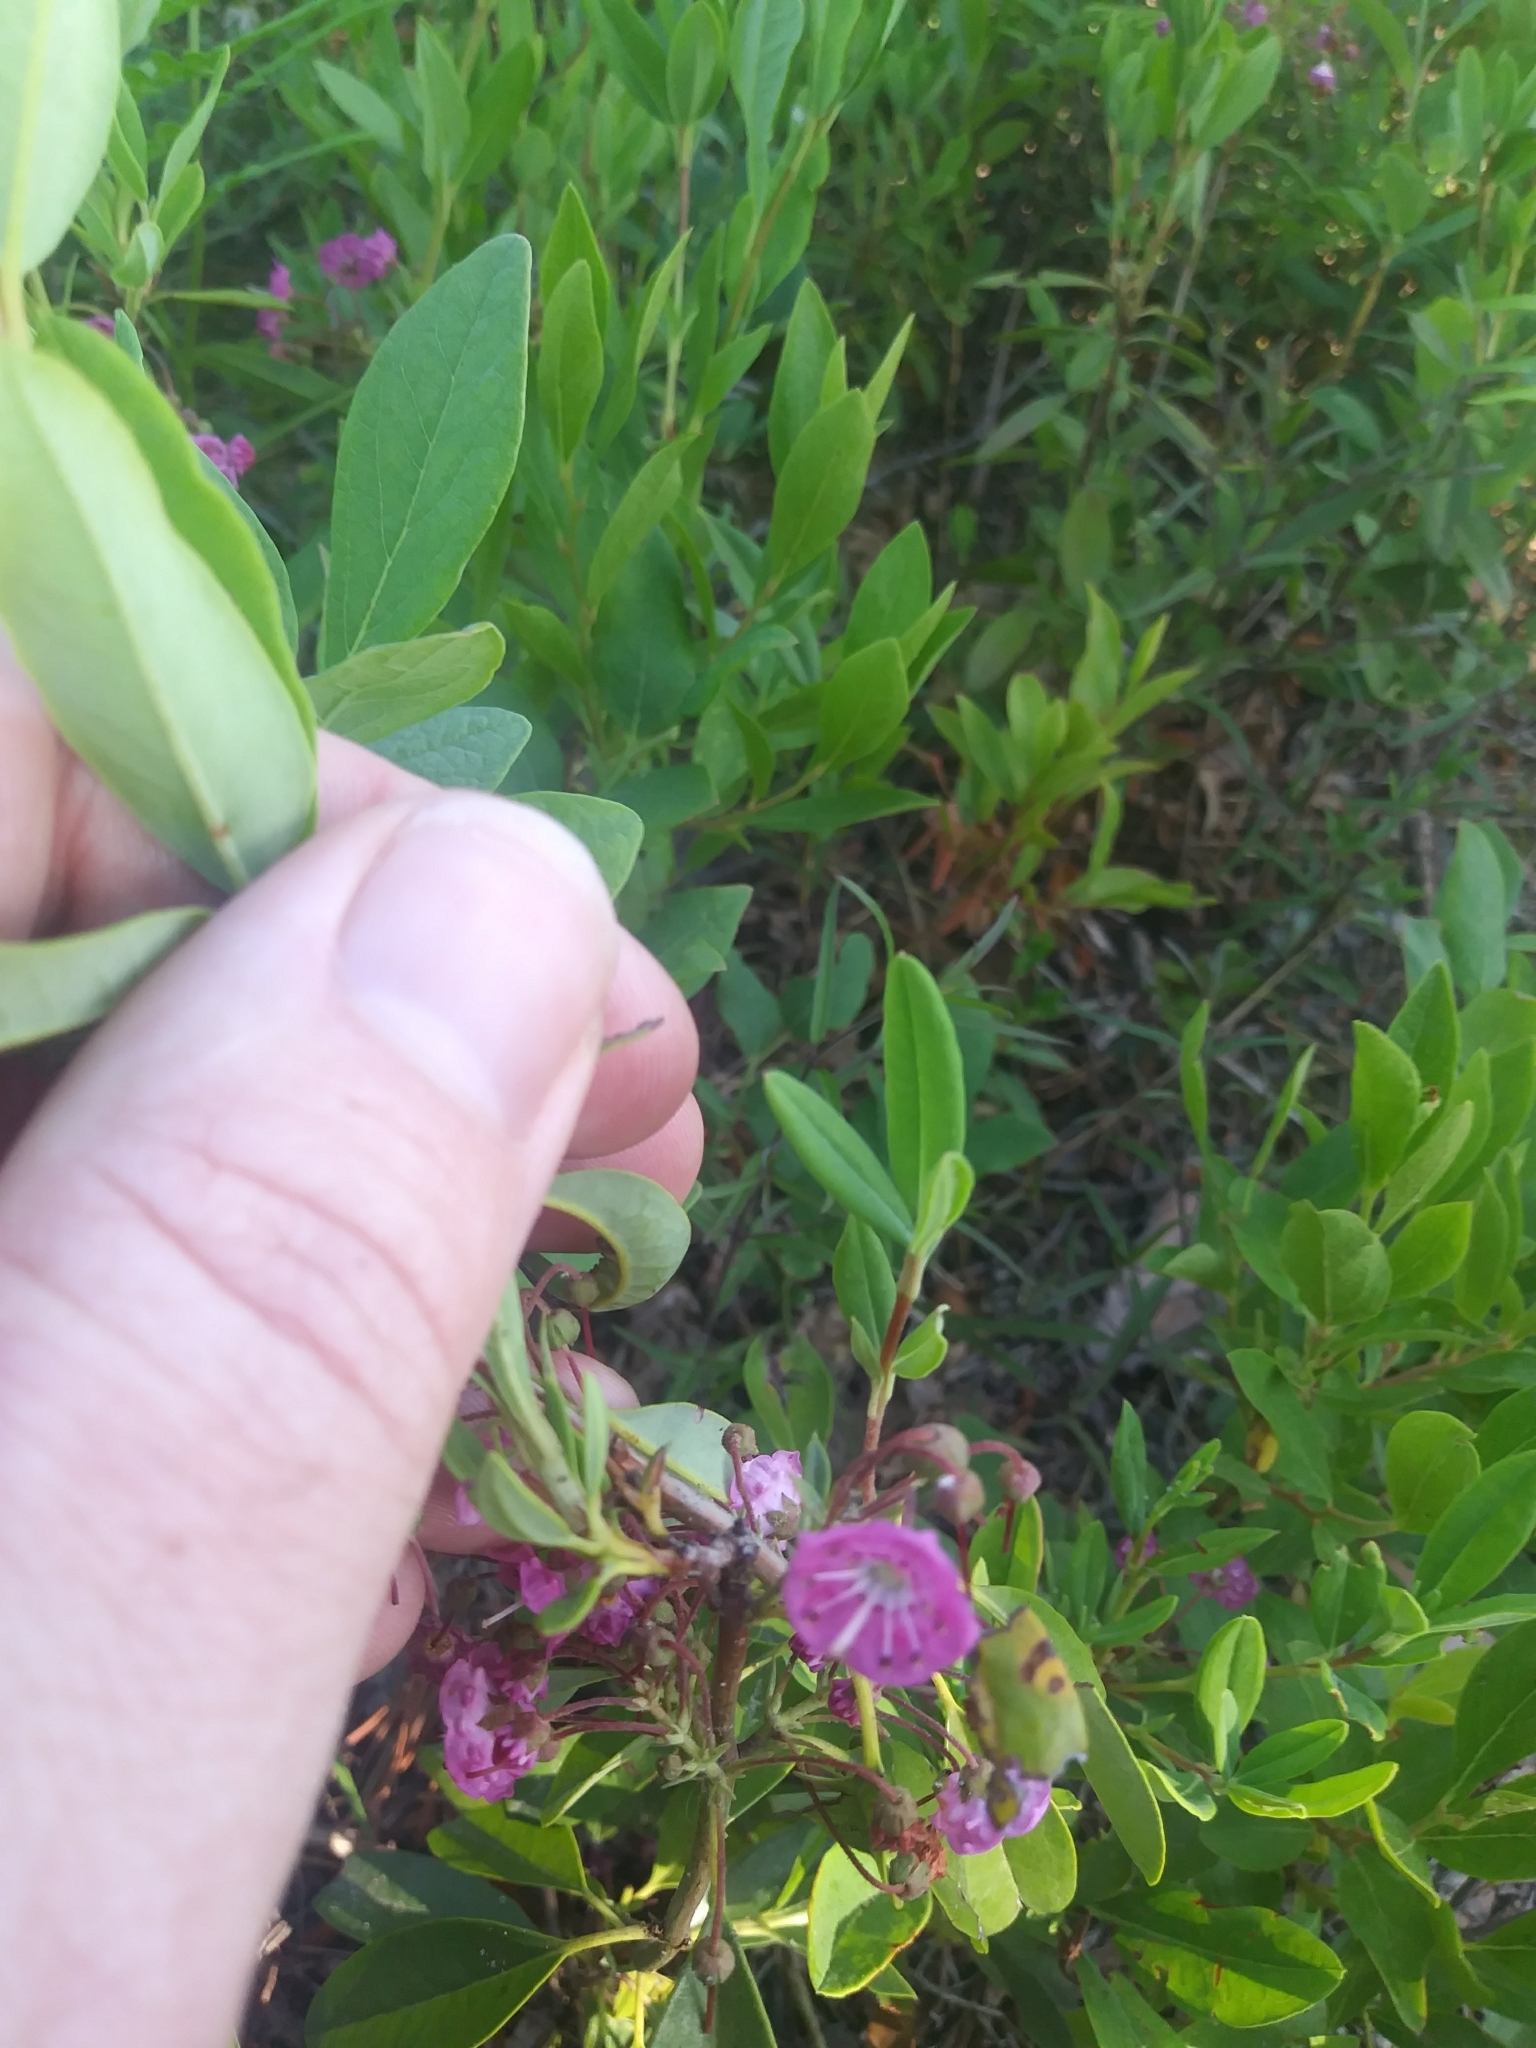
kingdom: Plantae
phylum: Tracheophyta
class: Magnoliopsida
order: Ericales
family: Ericaceae
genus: Kalmia
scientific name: Kalmia angustifolia
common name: Sheep-laurel
